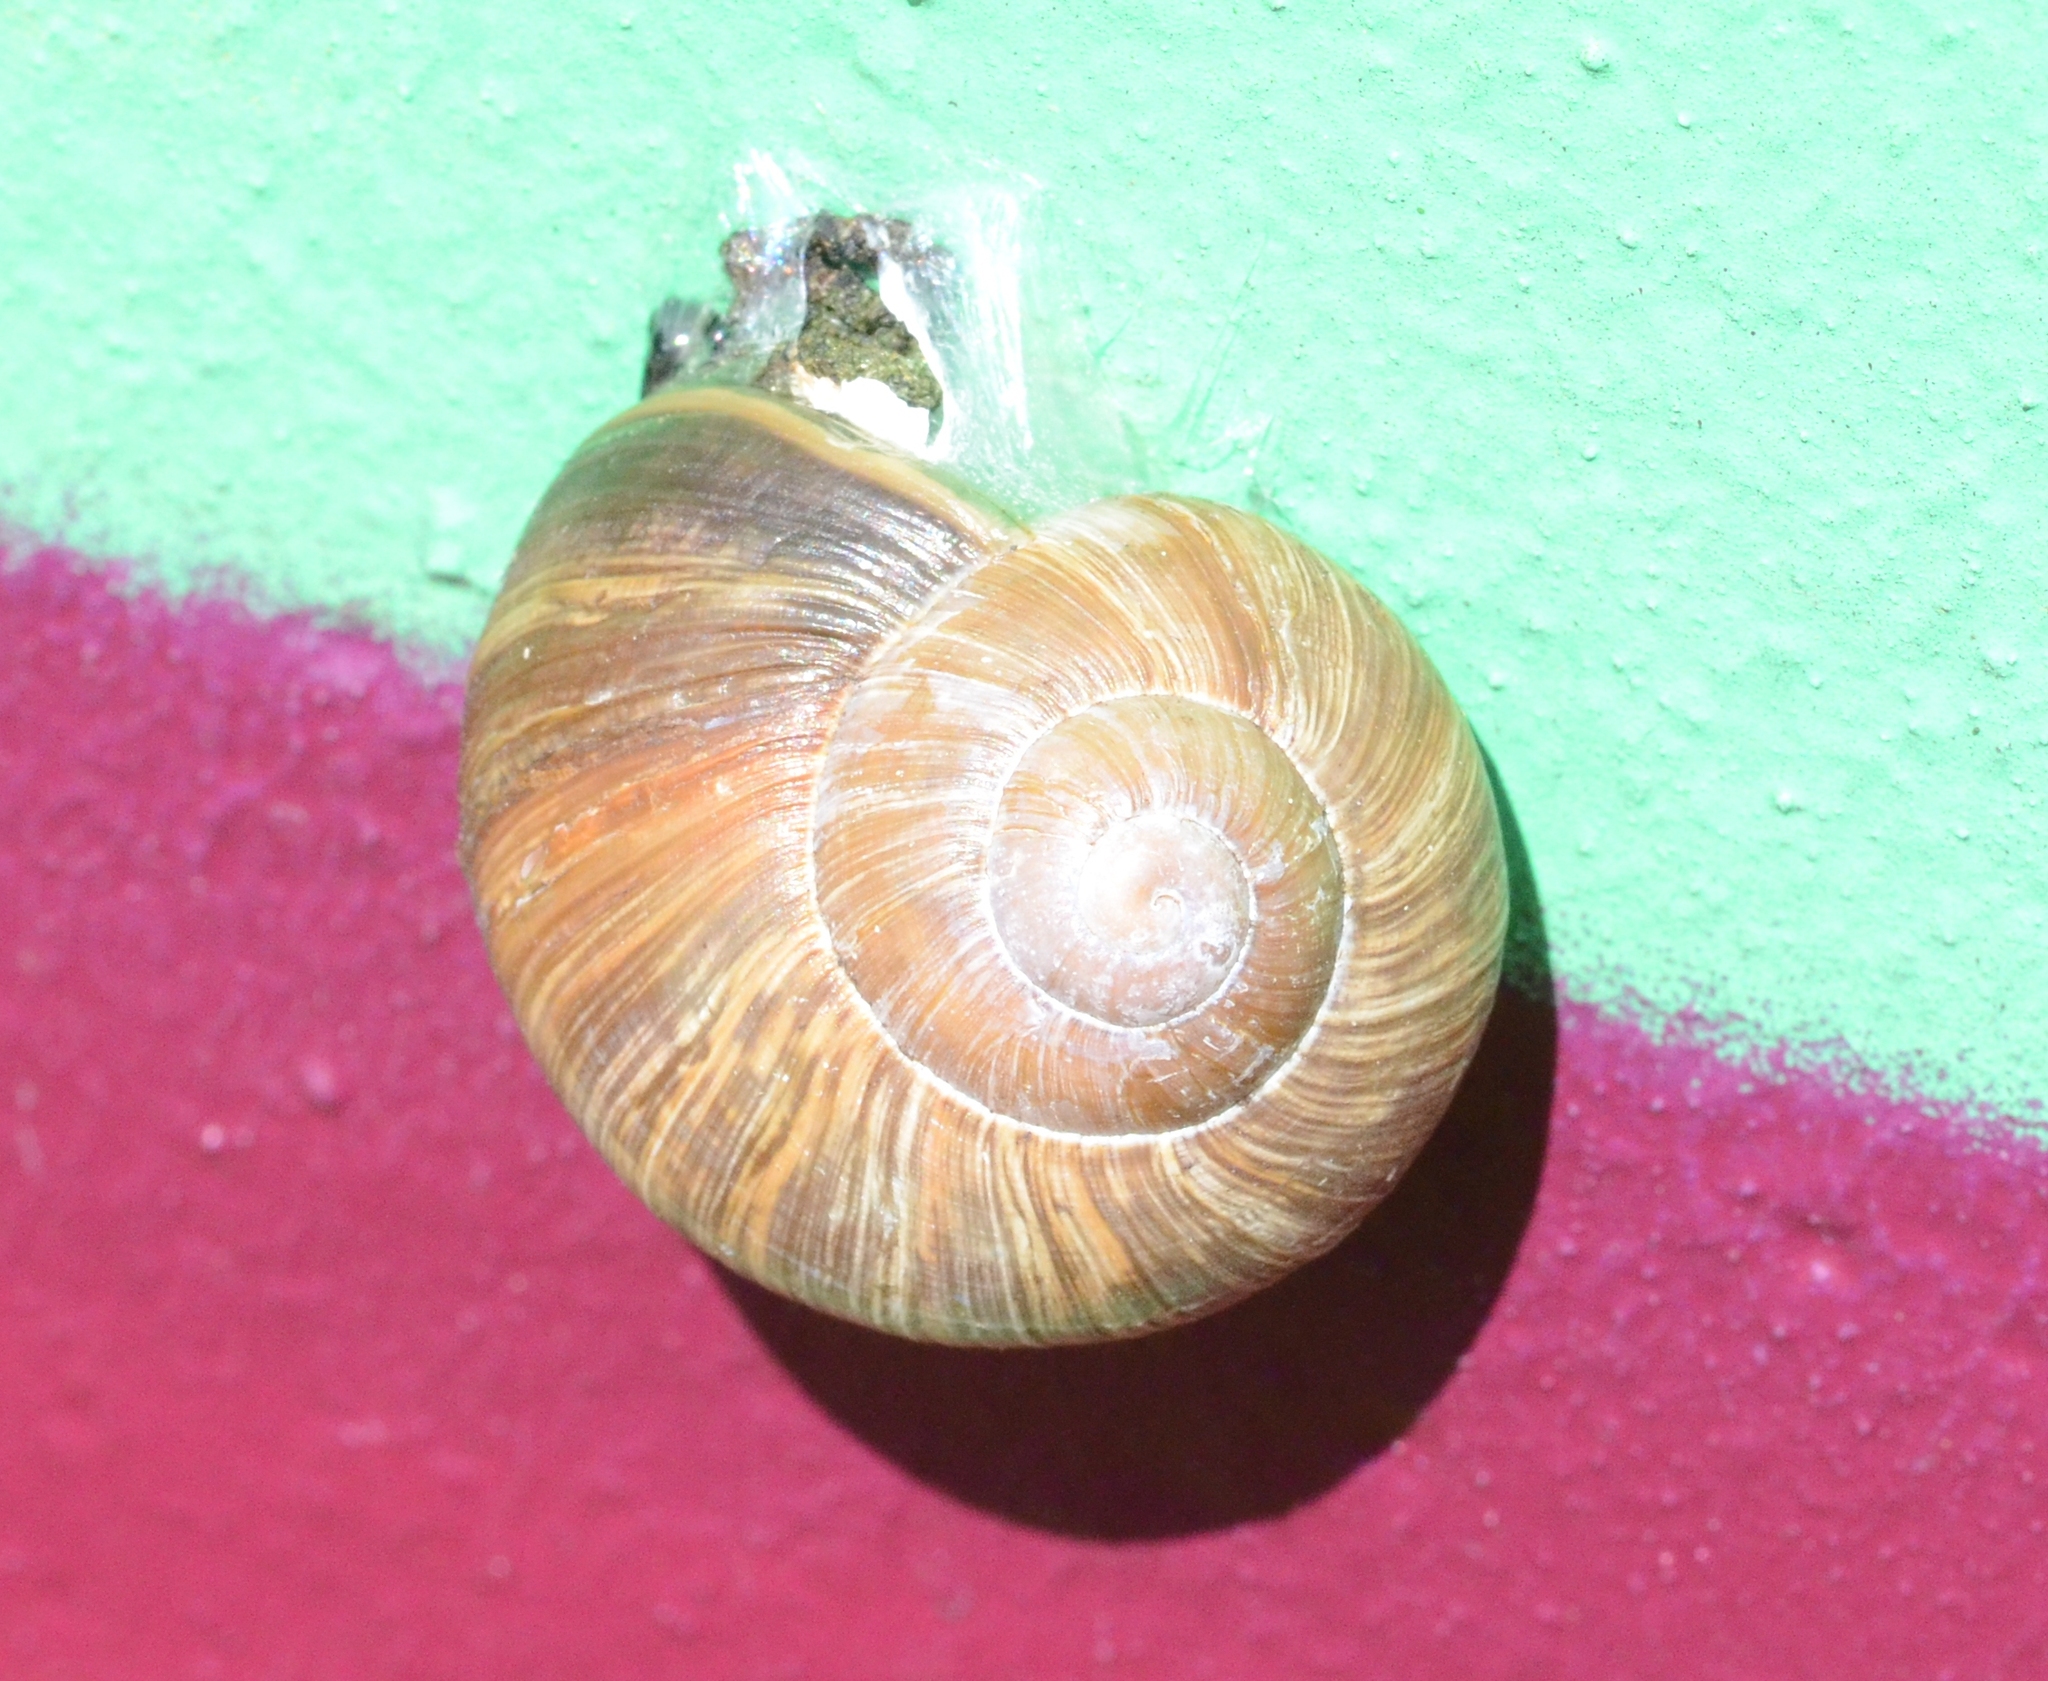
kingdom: Animalia
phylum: Mollusca
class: Gastropoda
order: Stylommatophora
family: Helicidae
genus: Helix
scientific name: Helix pomatia
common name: Roman snail
